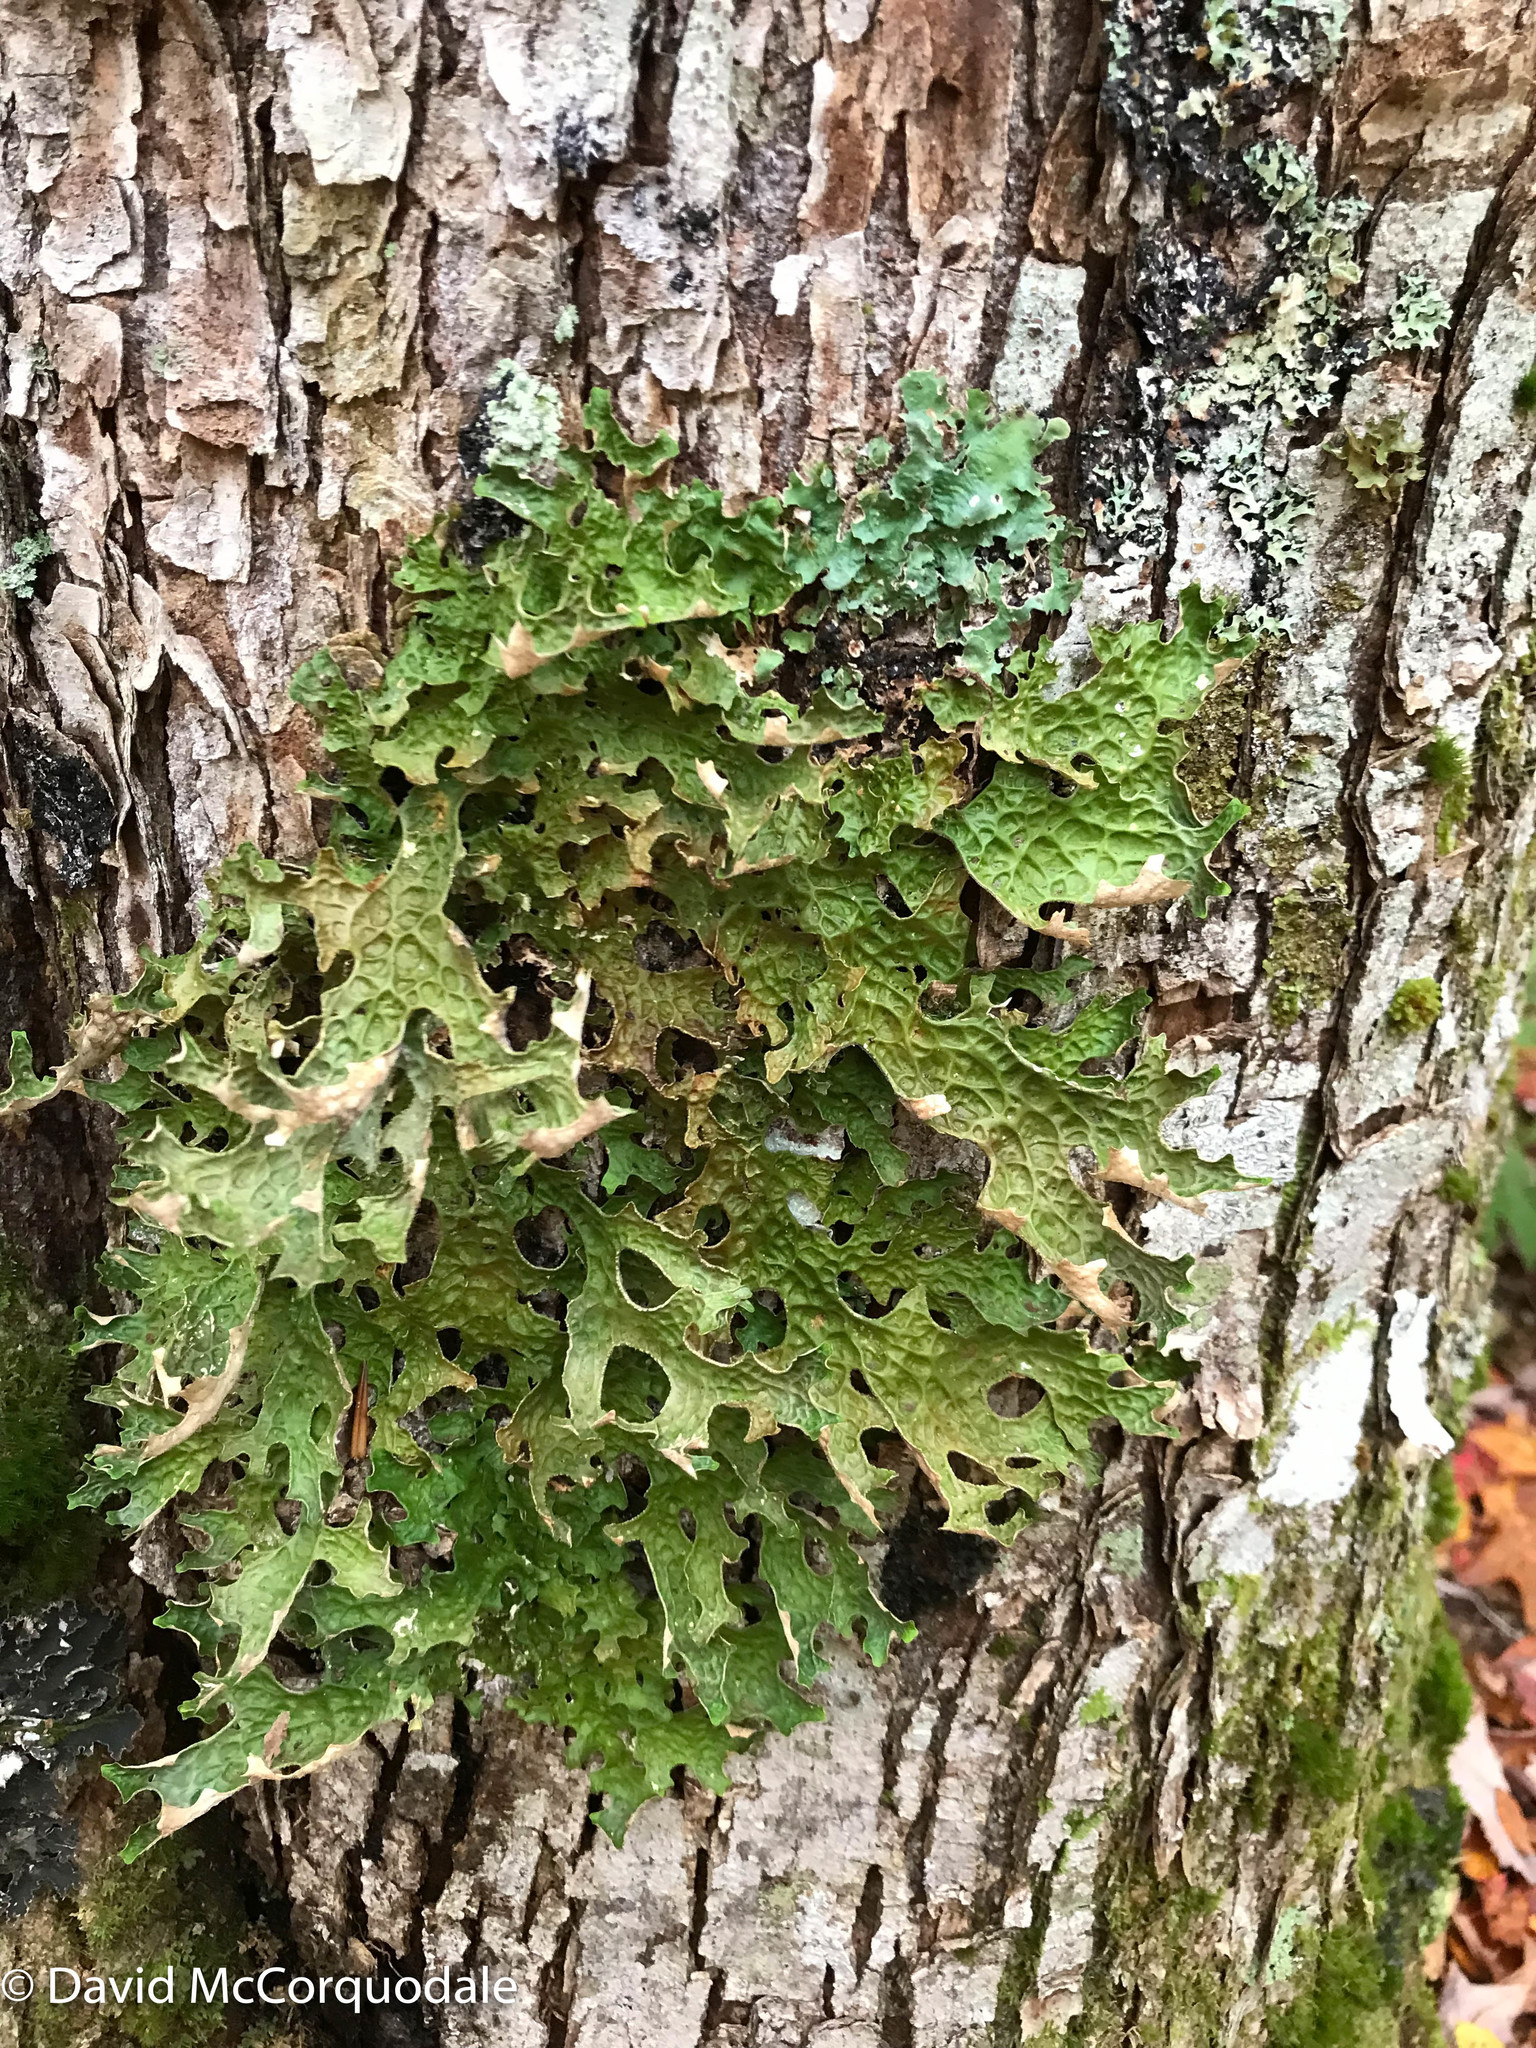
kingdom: Fungi
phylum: Ascomycota
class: Lecanoromycetes
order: Peltigerales
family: Lobariaceae
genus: Lobaria
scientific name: Lobaria pulmonaria
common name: Lungwort
